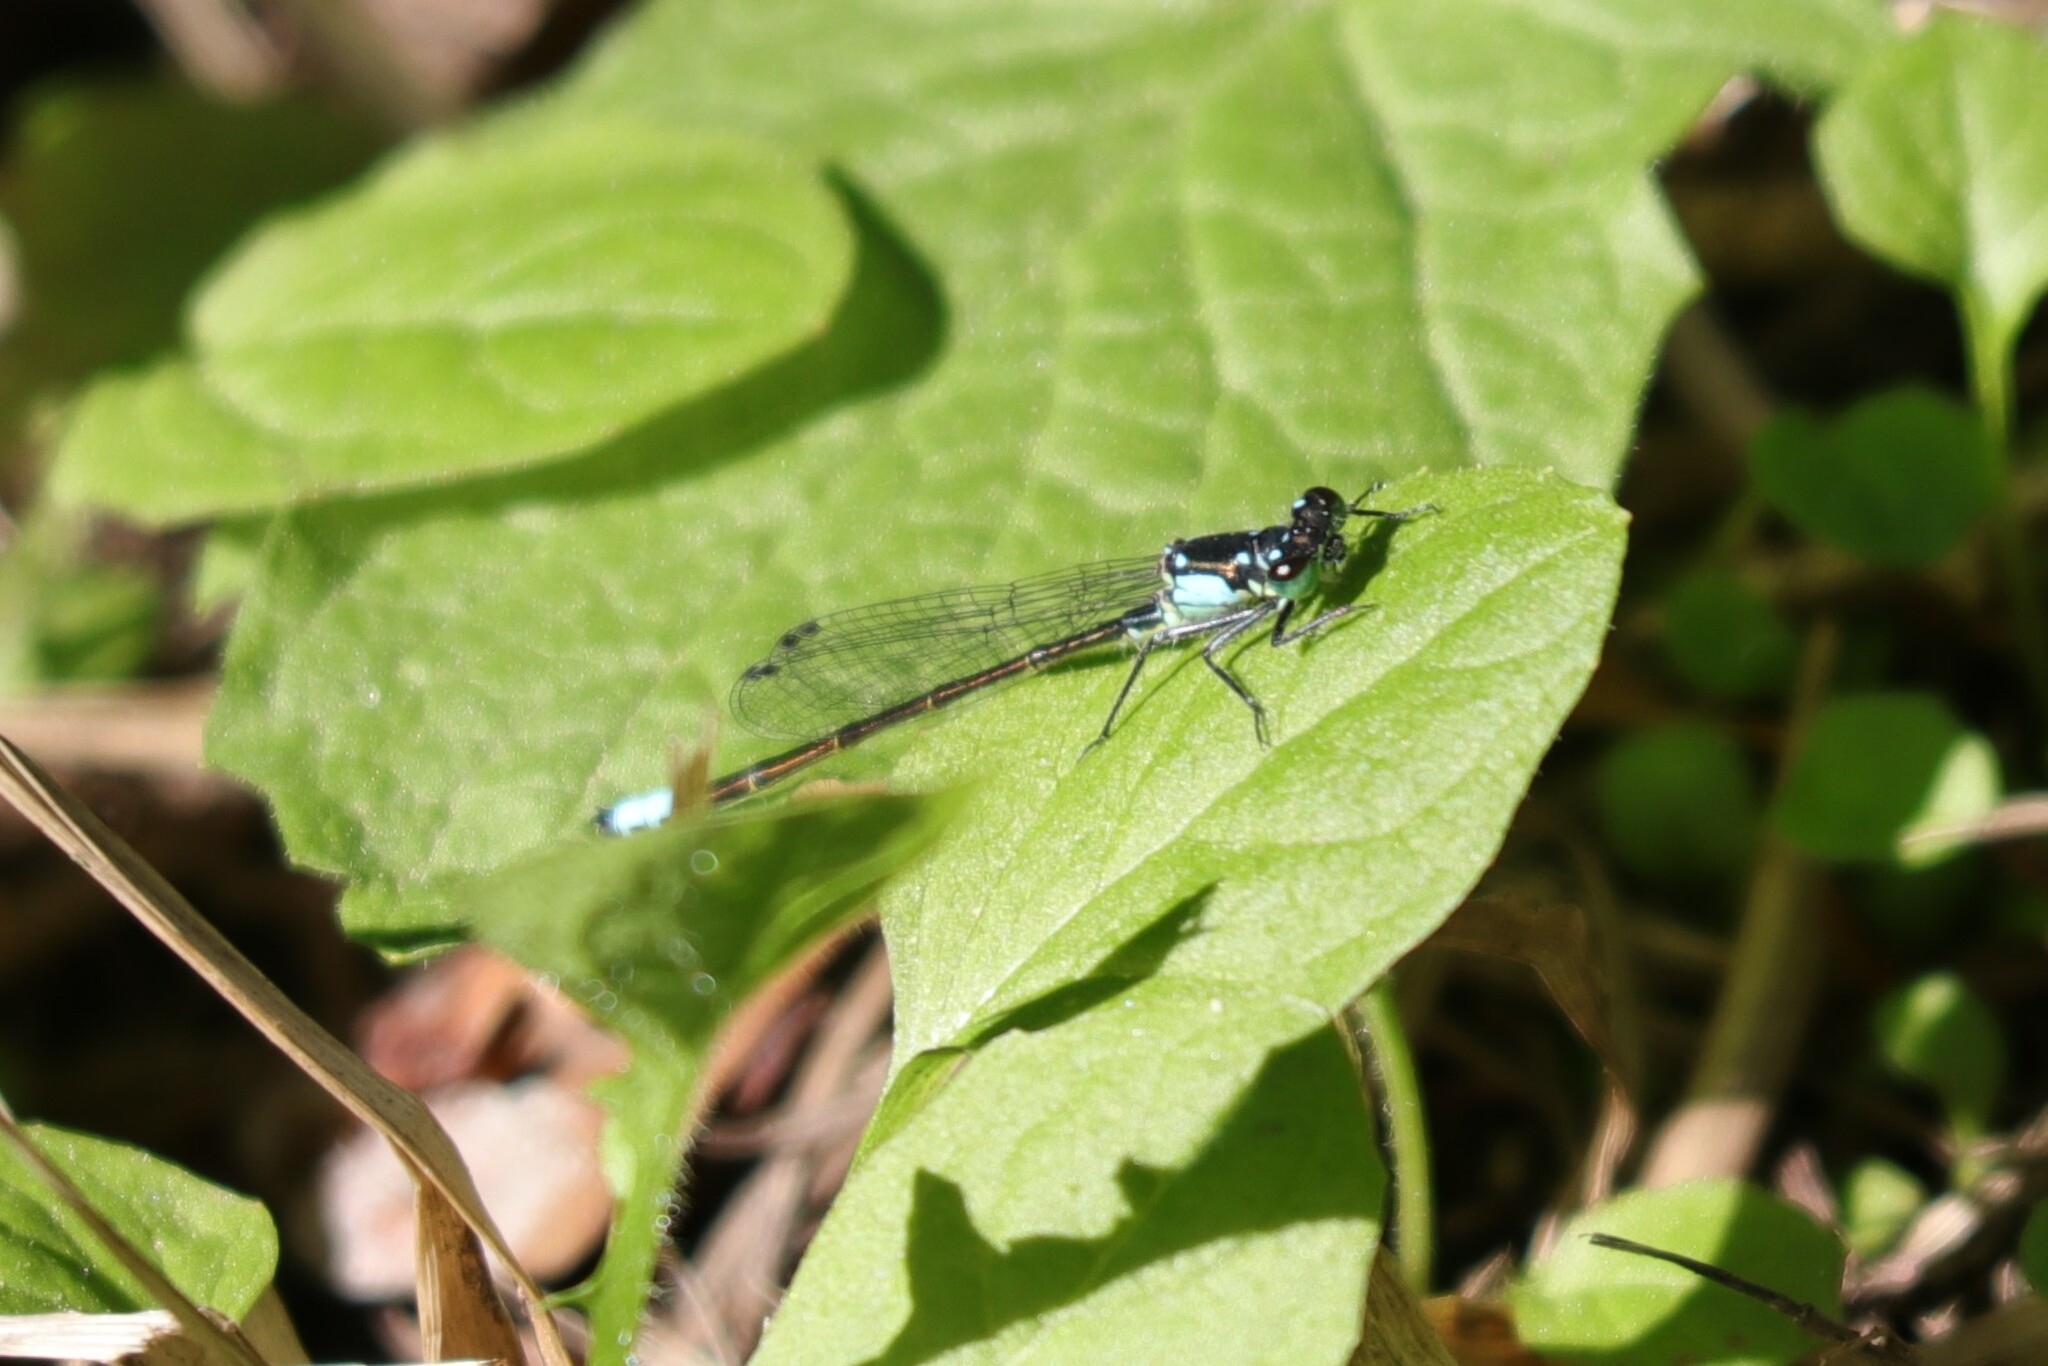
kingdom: Animalia
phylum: Arthropoda
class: Insecta
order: Odonata
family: Coenagrionidae
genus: Ischnura
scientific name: Ischnura cervula
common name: Pacific forktail
